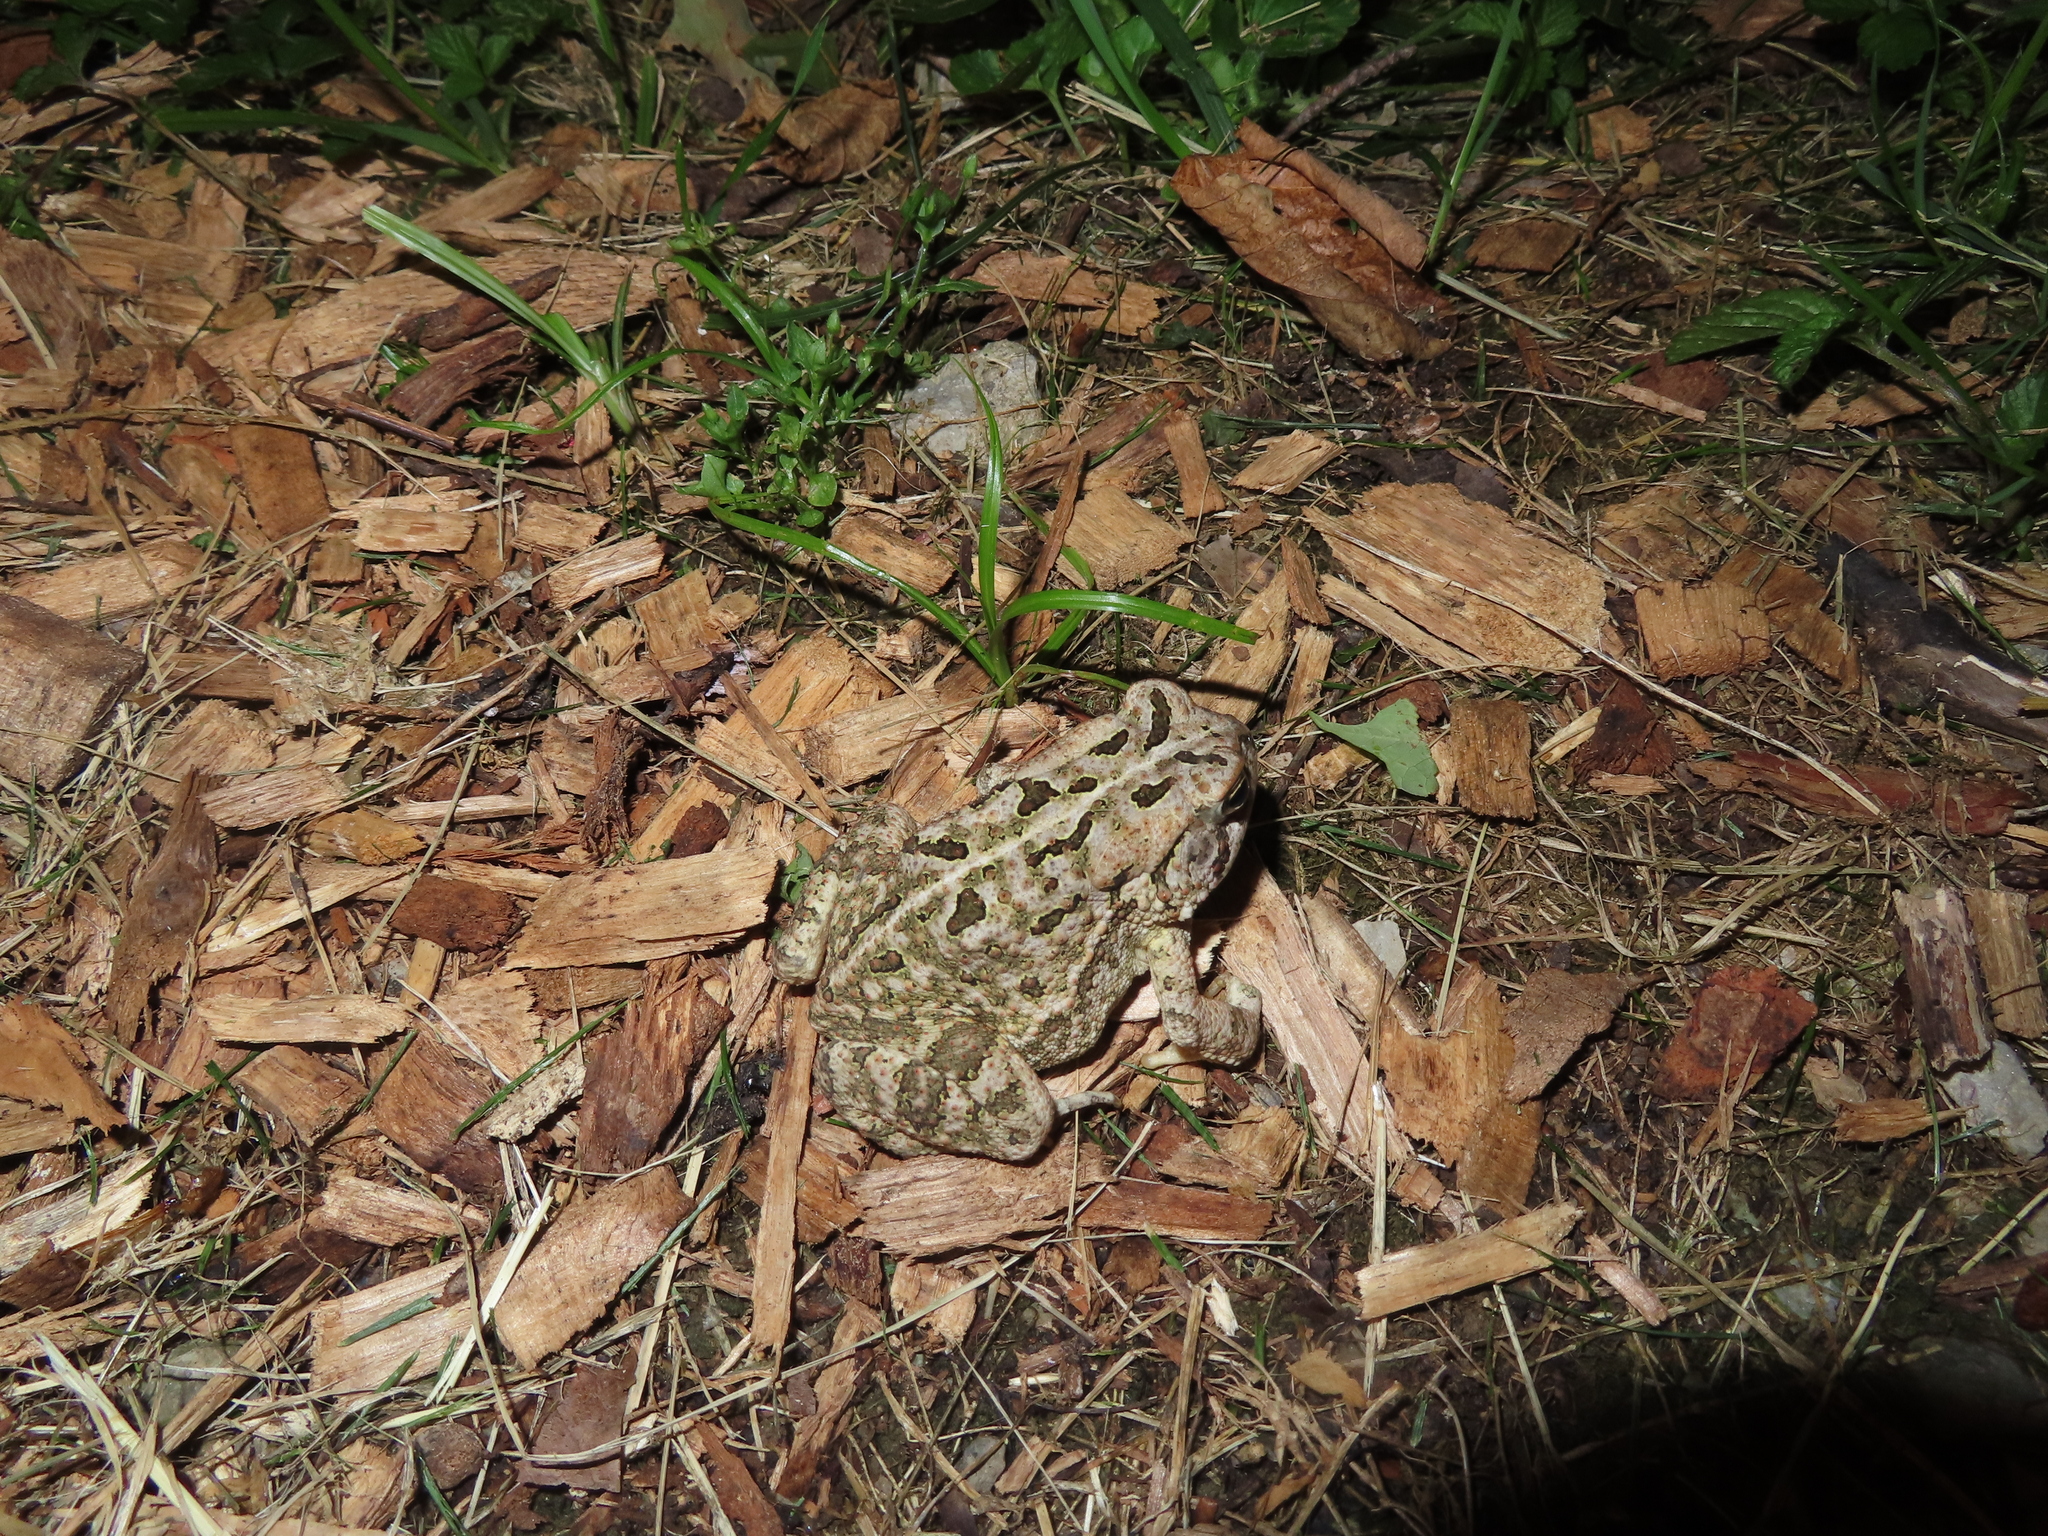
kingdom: Animalia
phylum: Chordata
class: Amphibia
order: Anura
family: Bufonidae
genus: Anaxyrus
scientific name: Anaxyrus fowleri
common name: Fowler's toad
